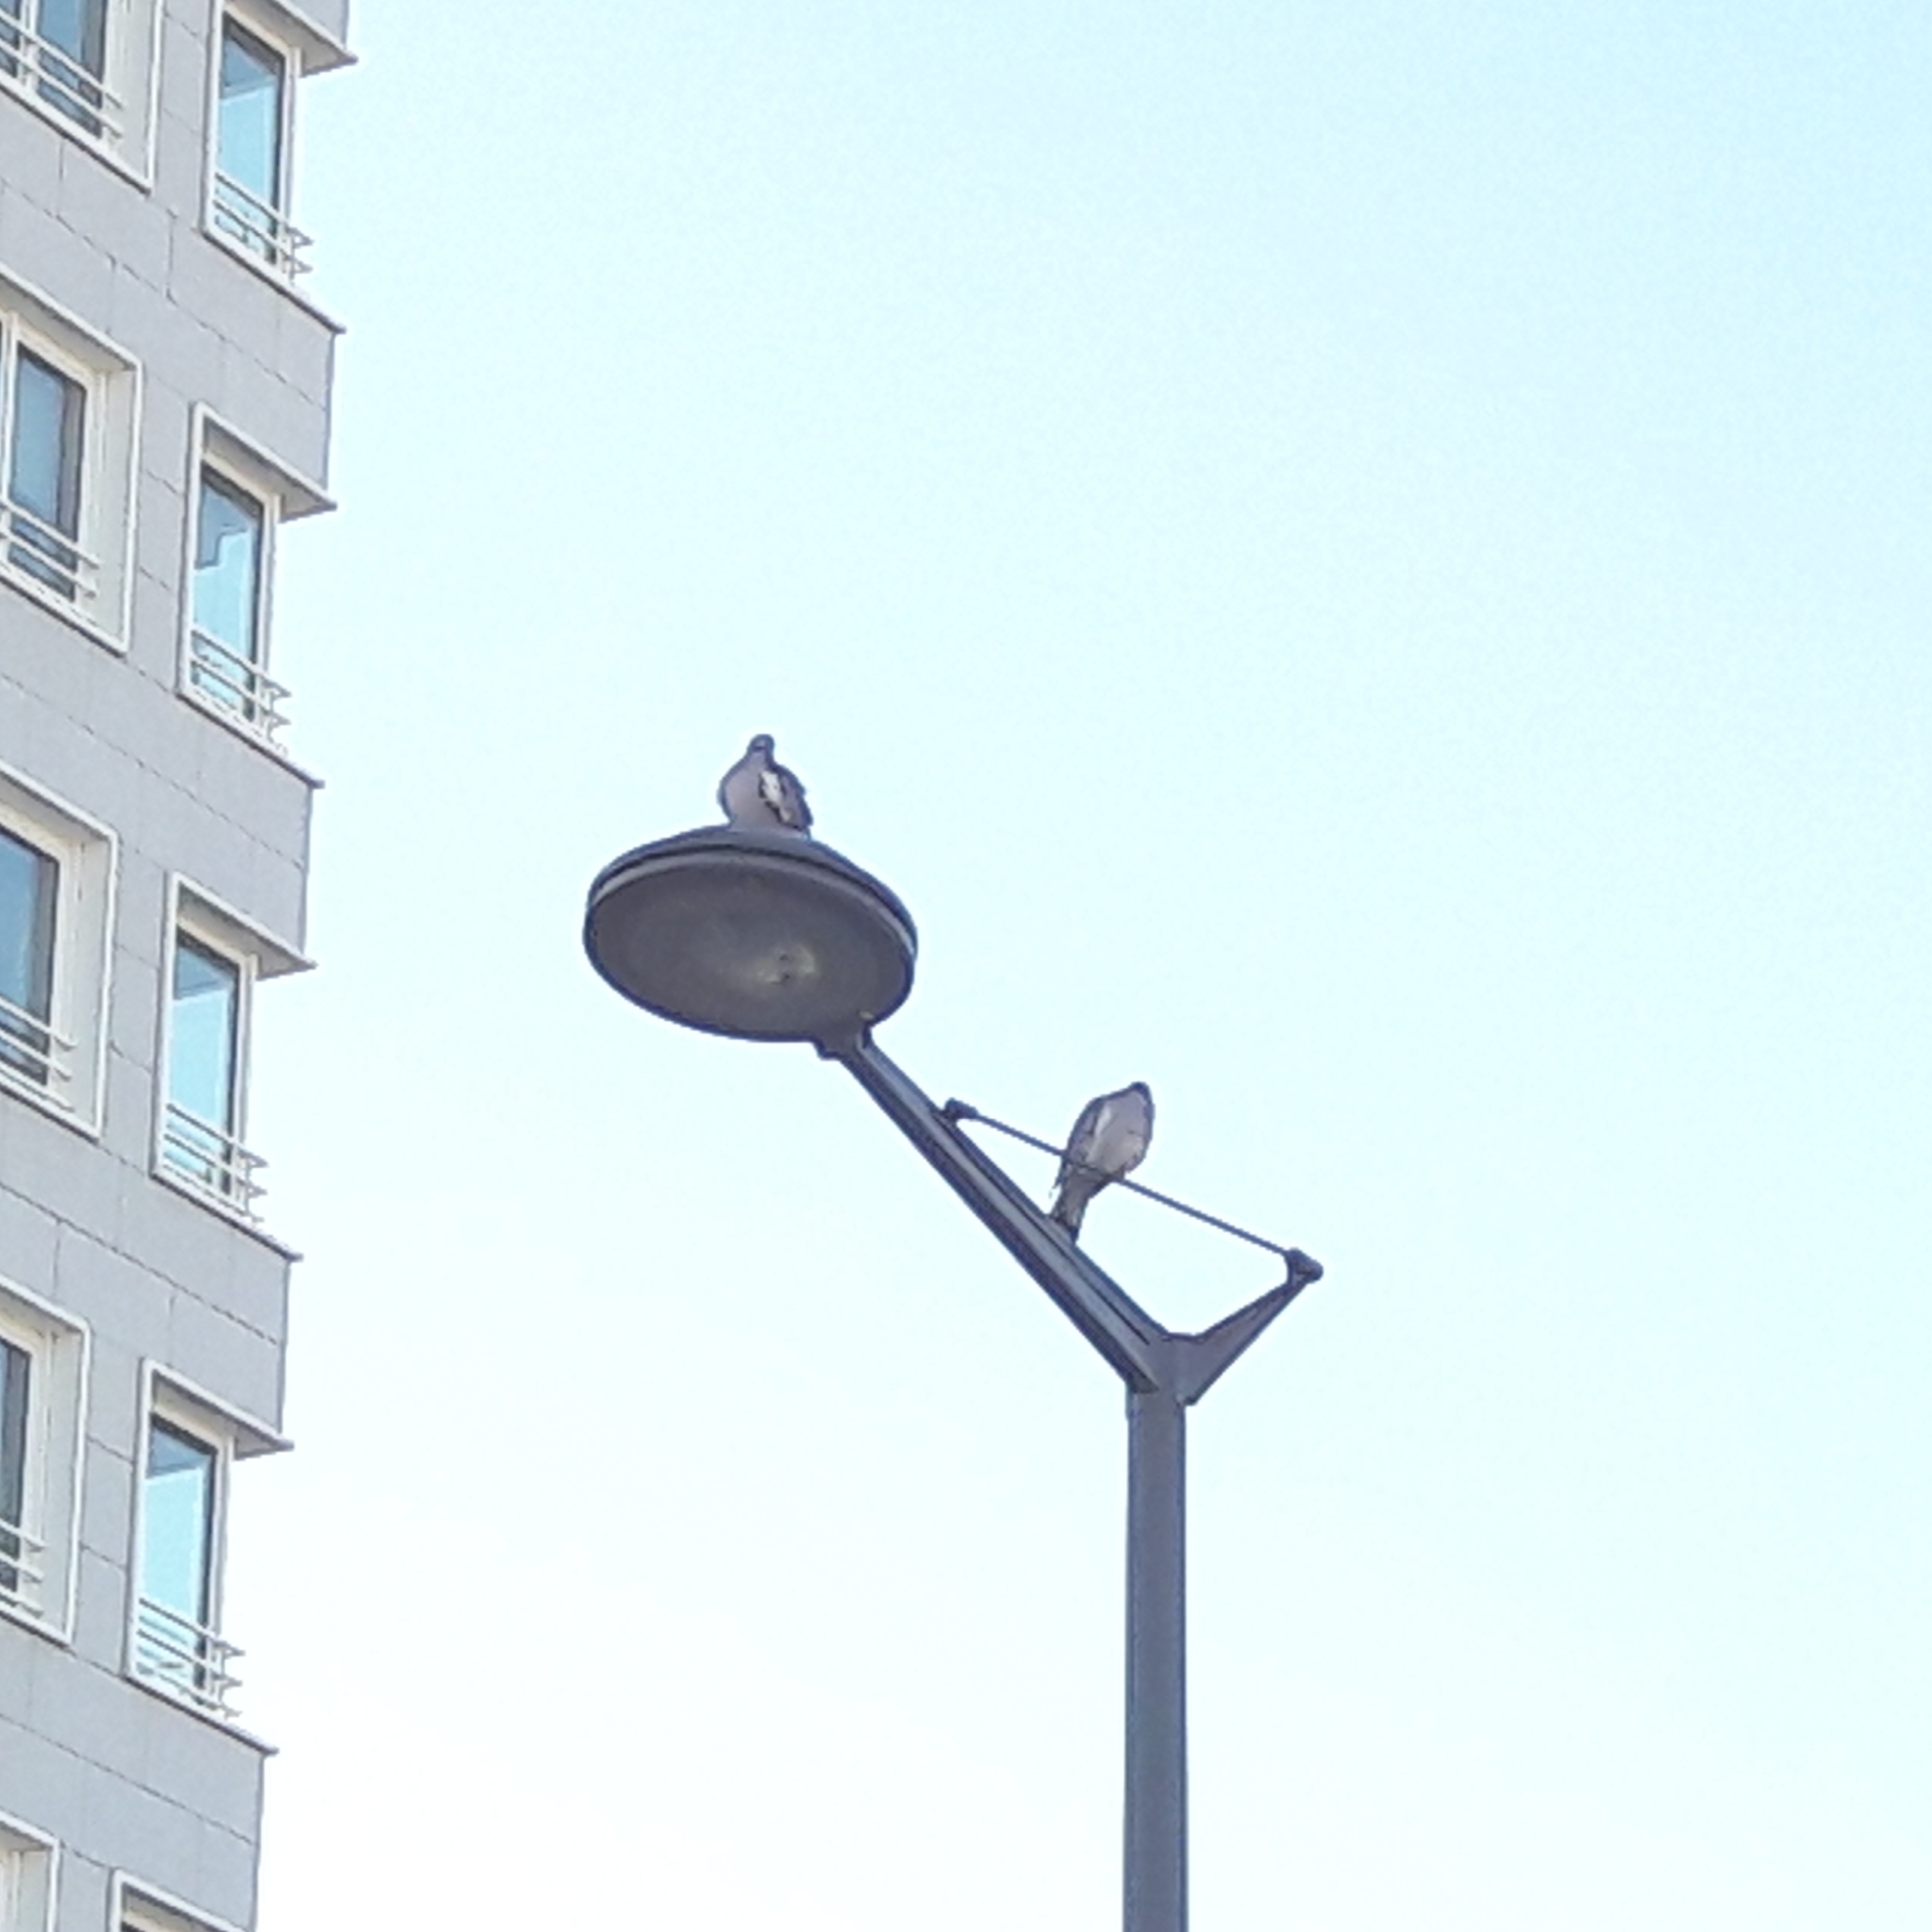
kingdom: Animalia
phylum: Chordata
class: Aves
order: Columbiformes
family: Columbidae
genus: Columba
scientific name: Columba palumbus
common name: Common wood pigeon
